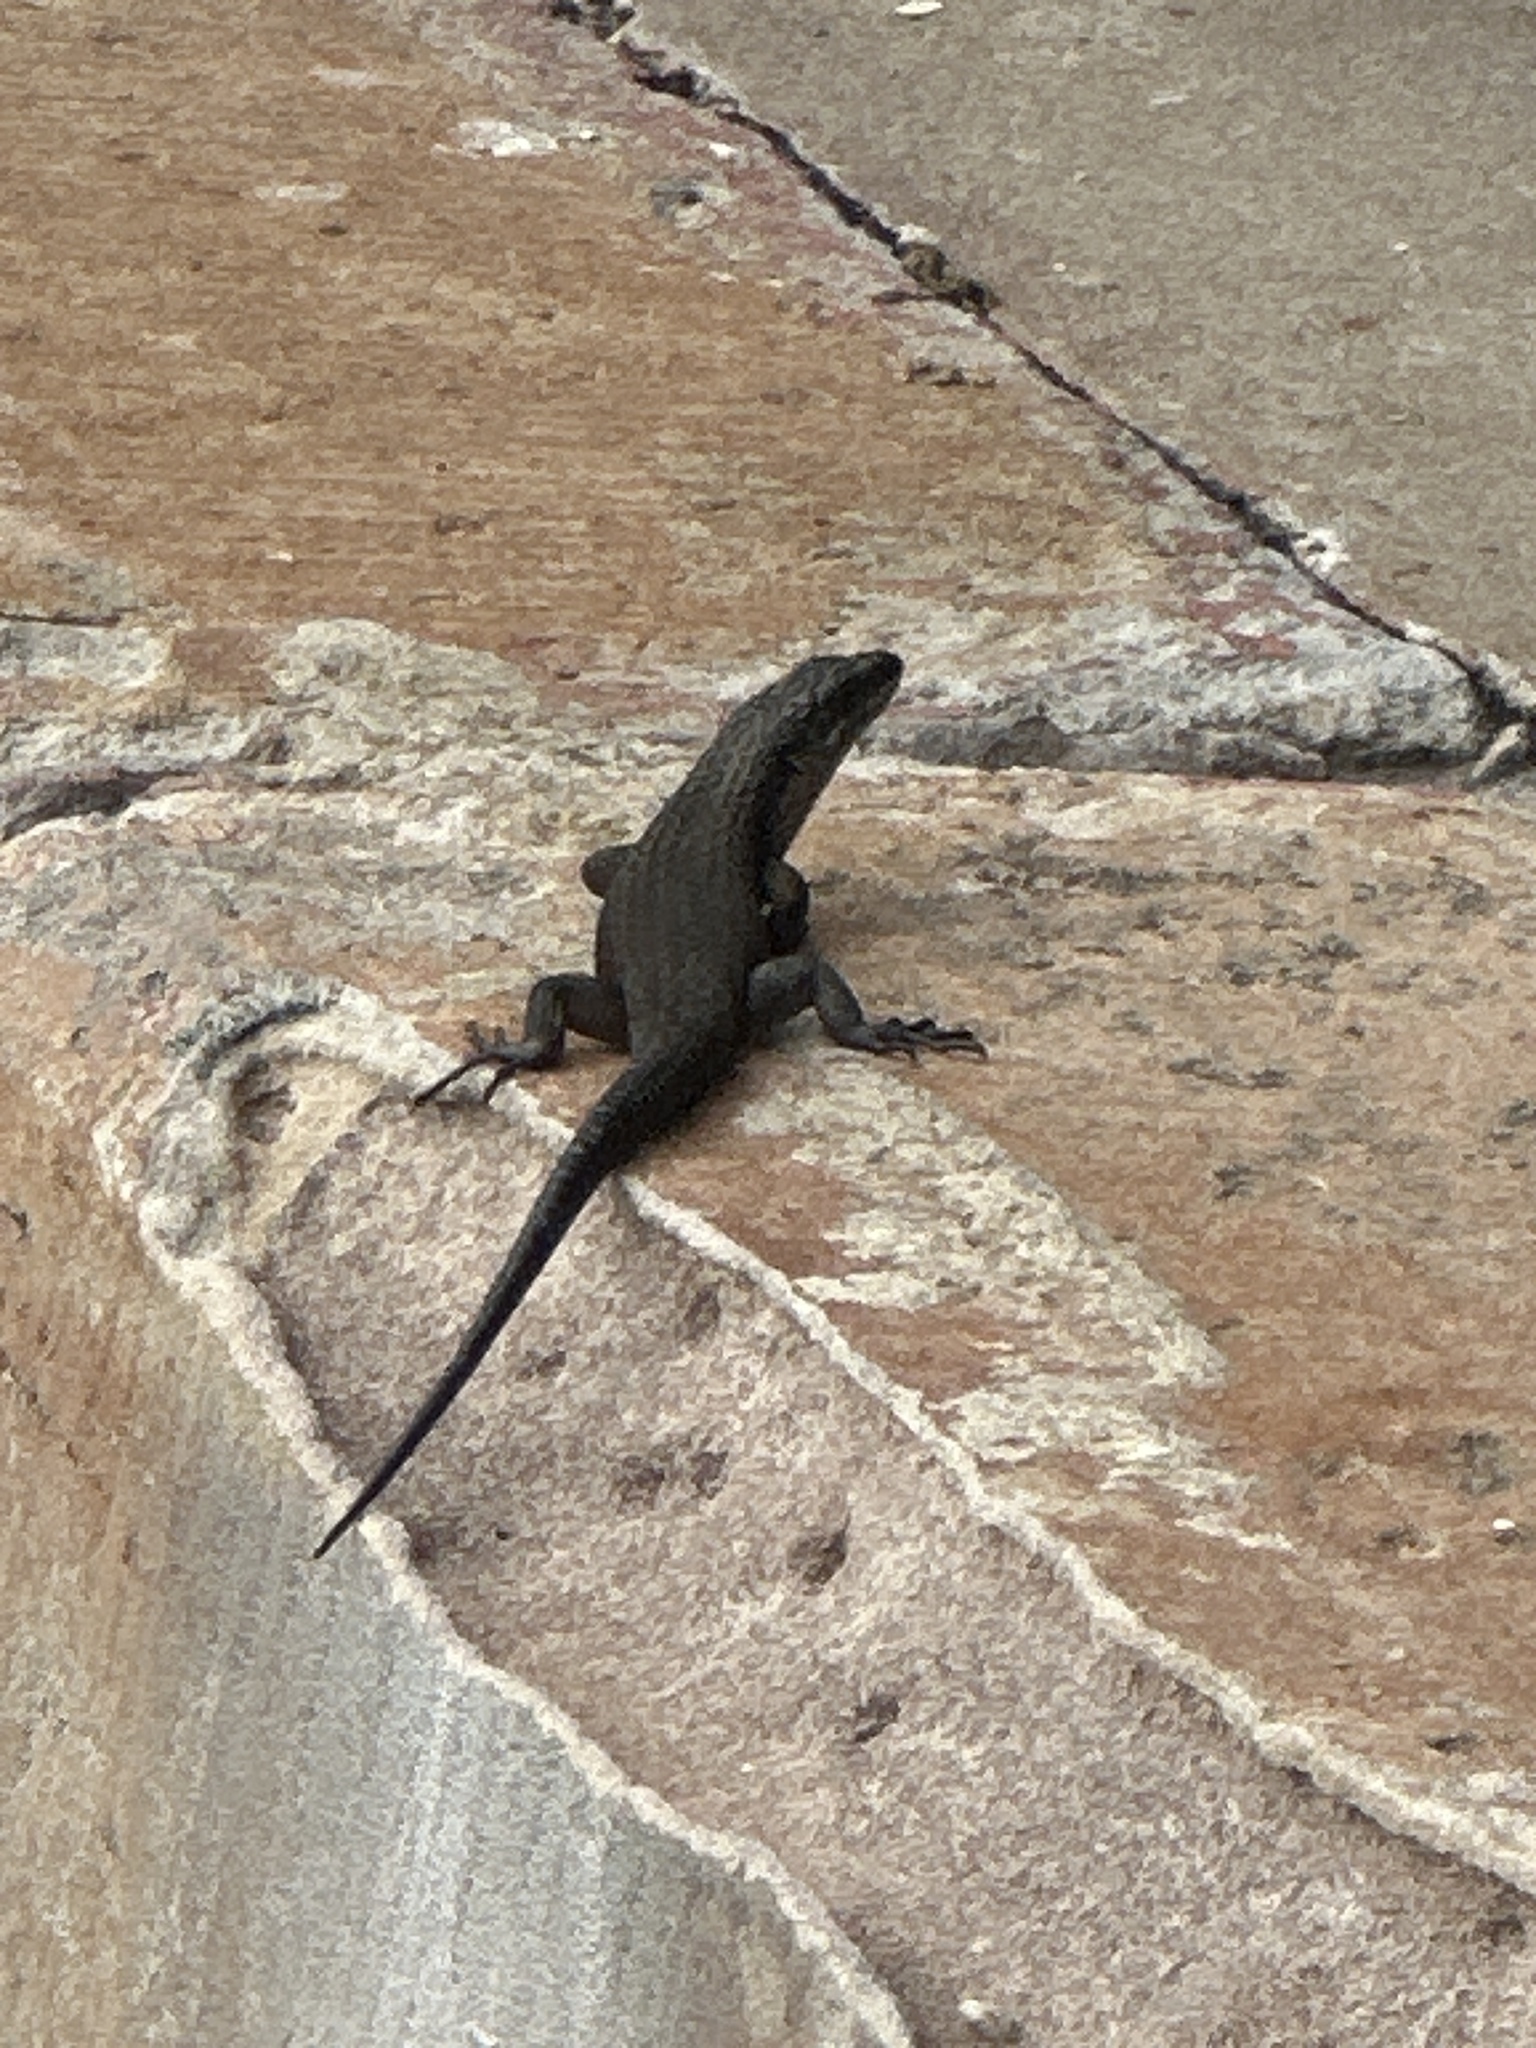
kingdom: Animalia
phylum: Chordata
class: Squamata
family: Scincidae
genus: Egernia
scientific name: Egernia saxatilis
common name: Black crevice-skink
